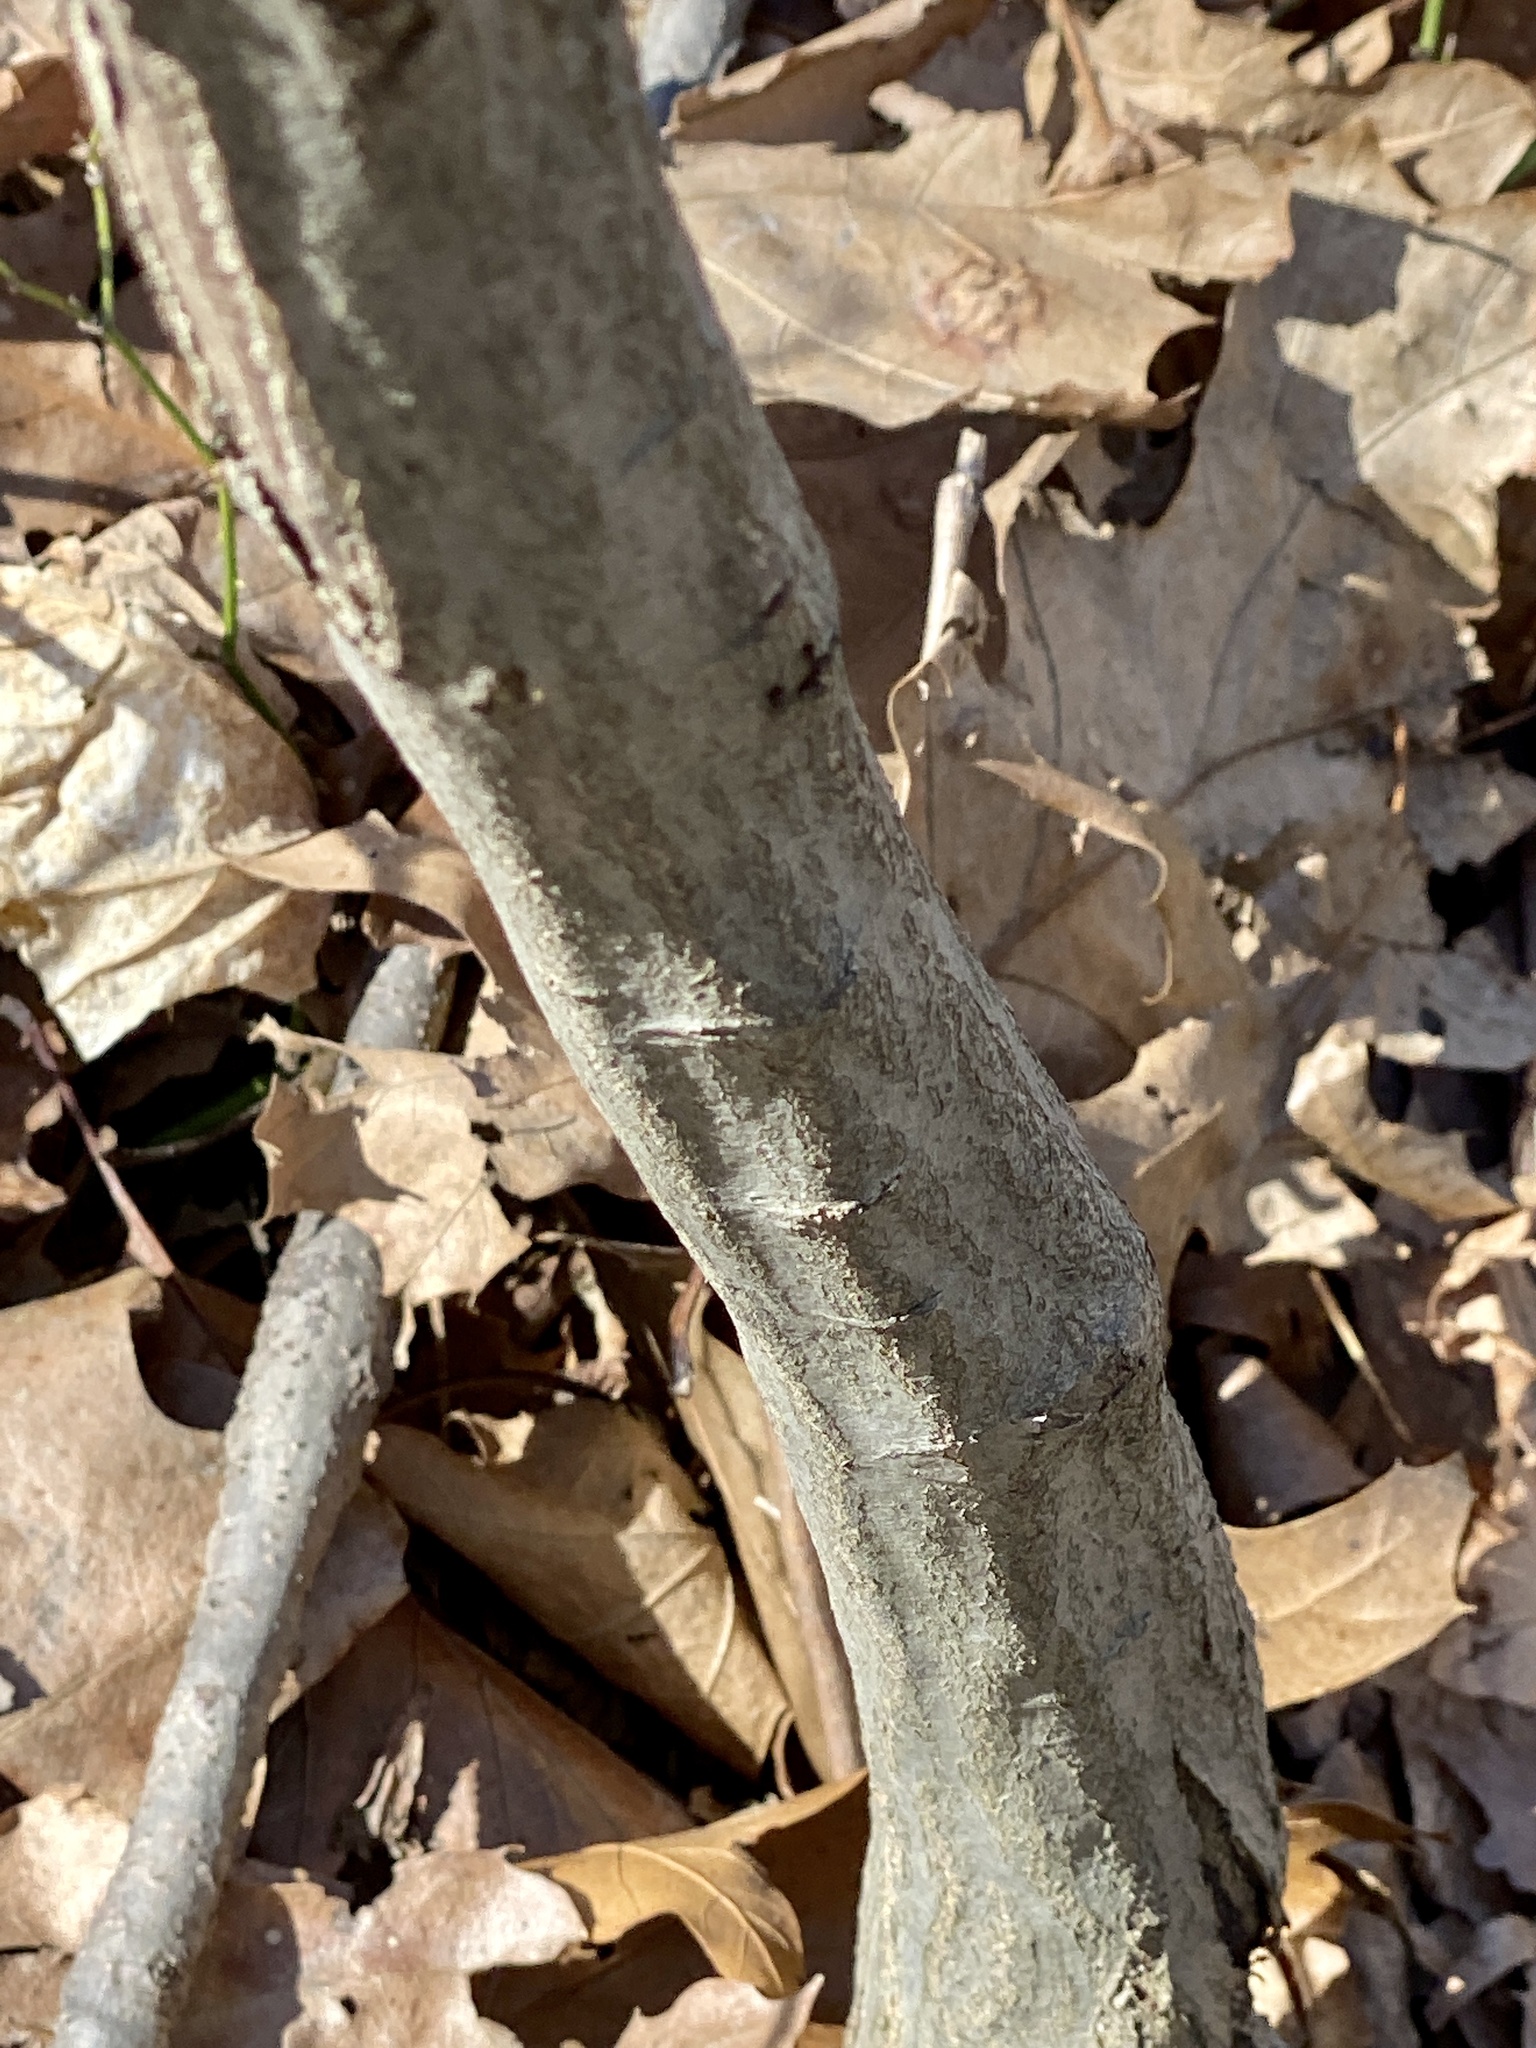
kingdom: Plantae
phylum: Tracheophyta
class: Magnoliopsida
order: Fagales
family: Betulaceae
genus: Carpinus
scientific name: Carpinus caroliniana
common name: American hornbeam
